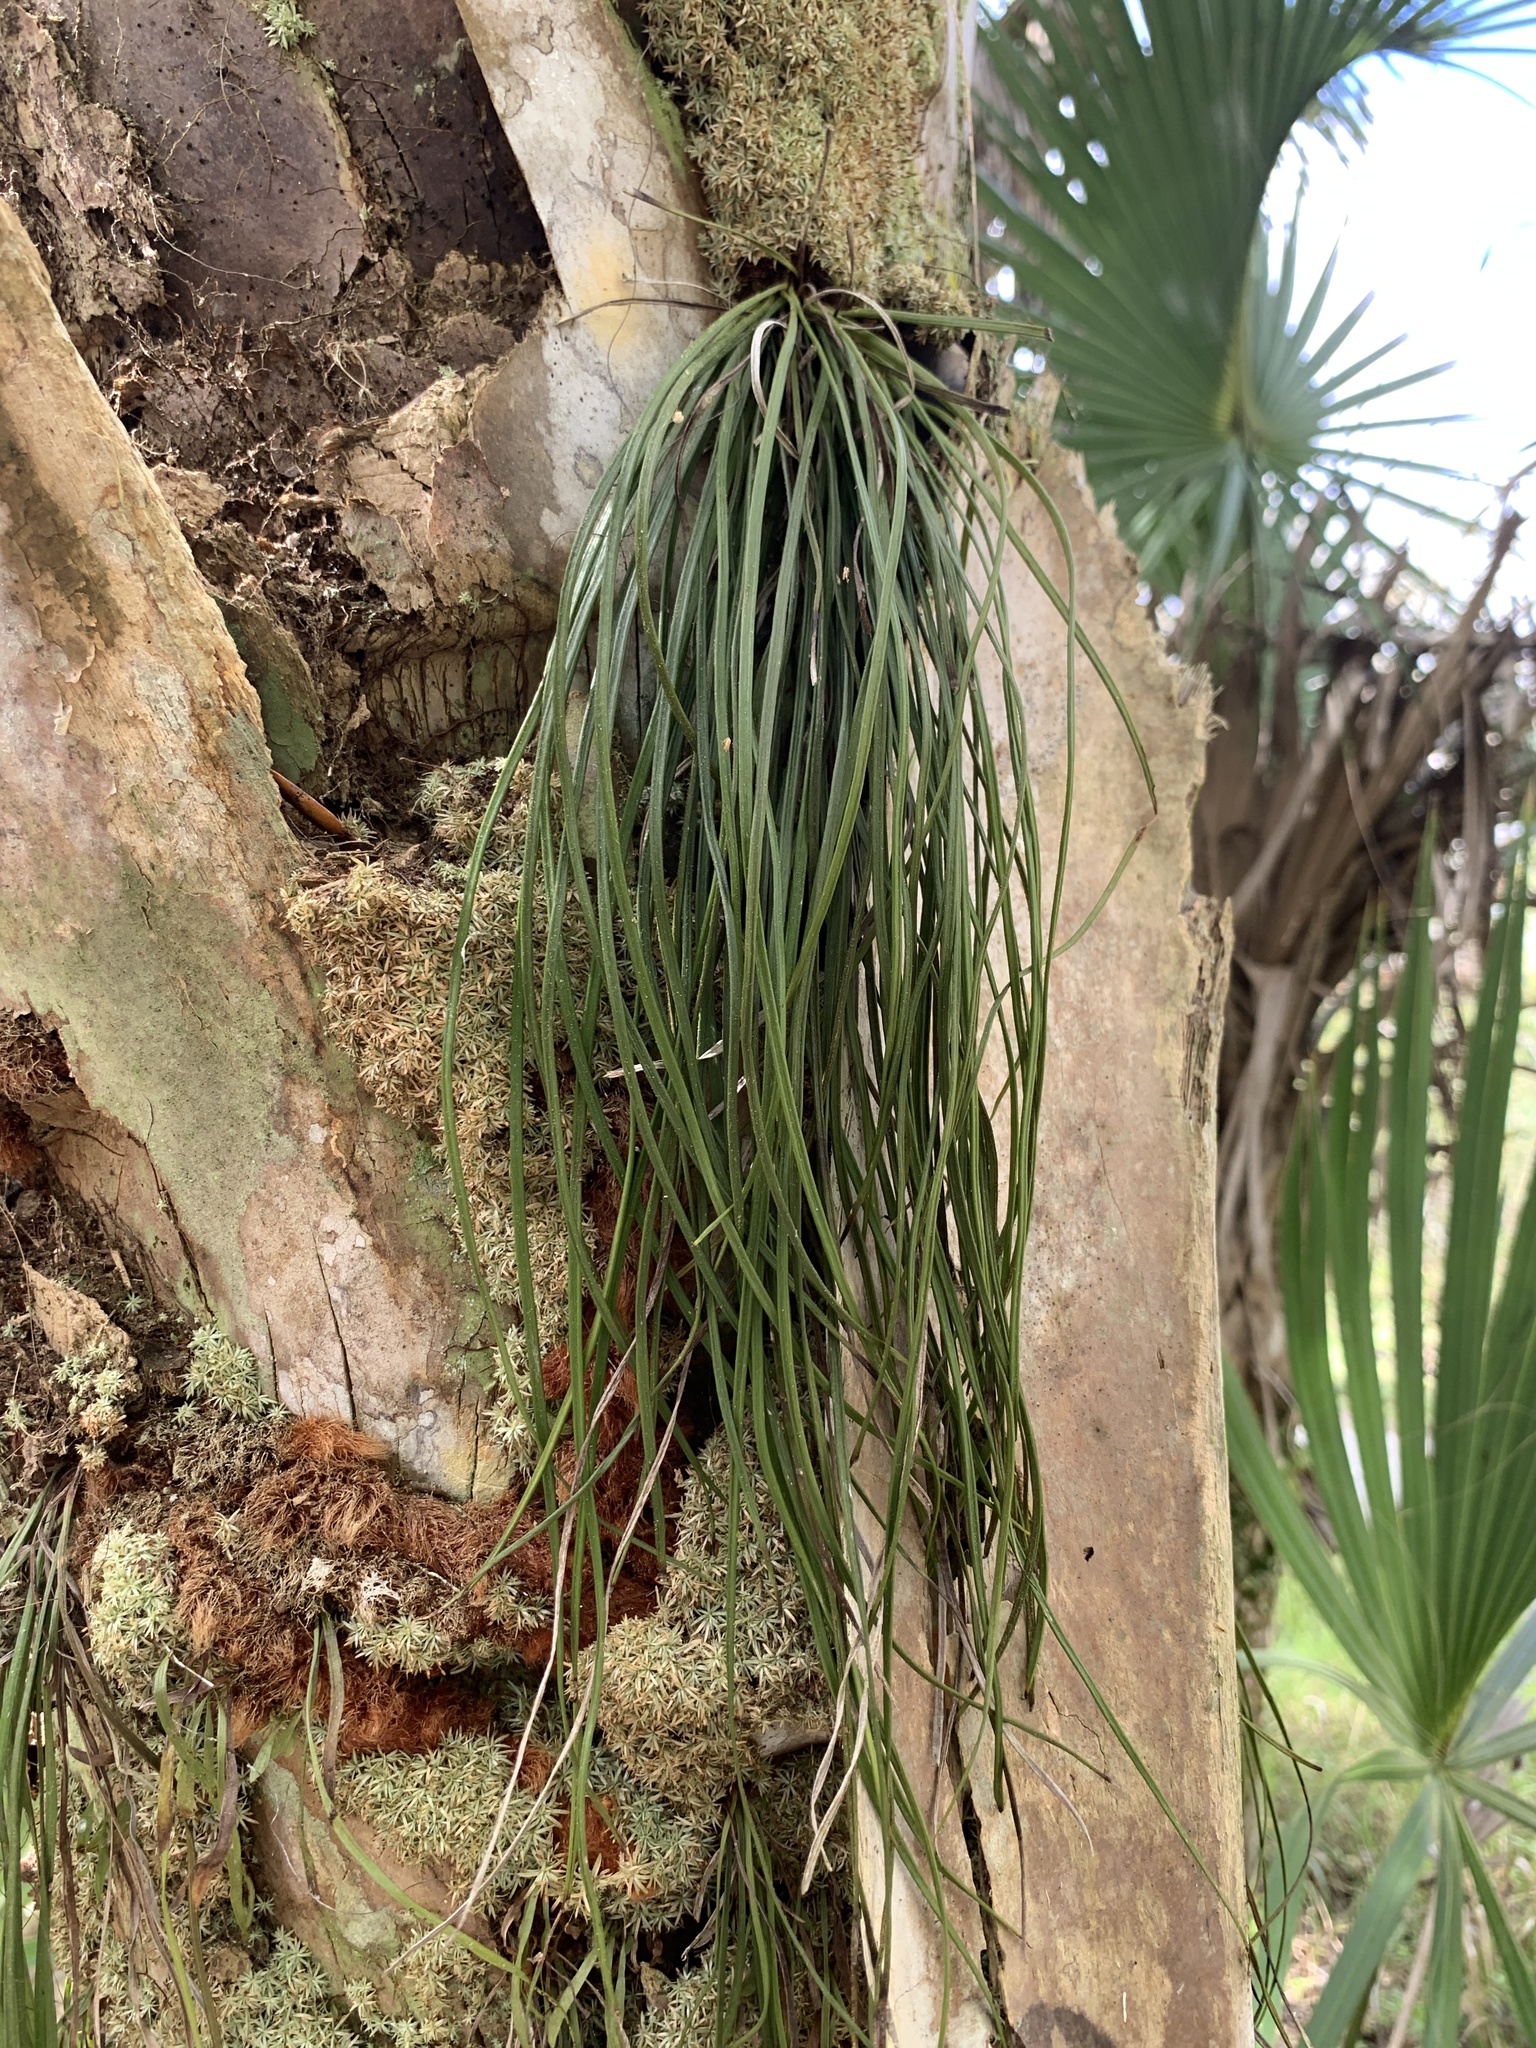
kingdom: Plantae
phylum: Tracheophyta
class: Polypodiopsida
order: Polypodiales
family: Pteridaceae
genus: Vittaria
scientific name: Vittaria lineata
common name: Shoestring fern
